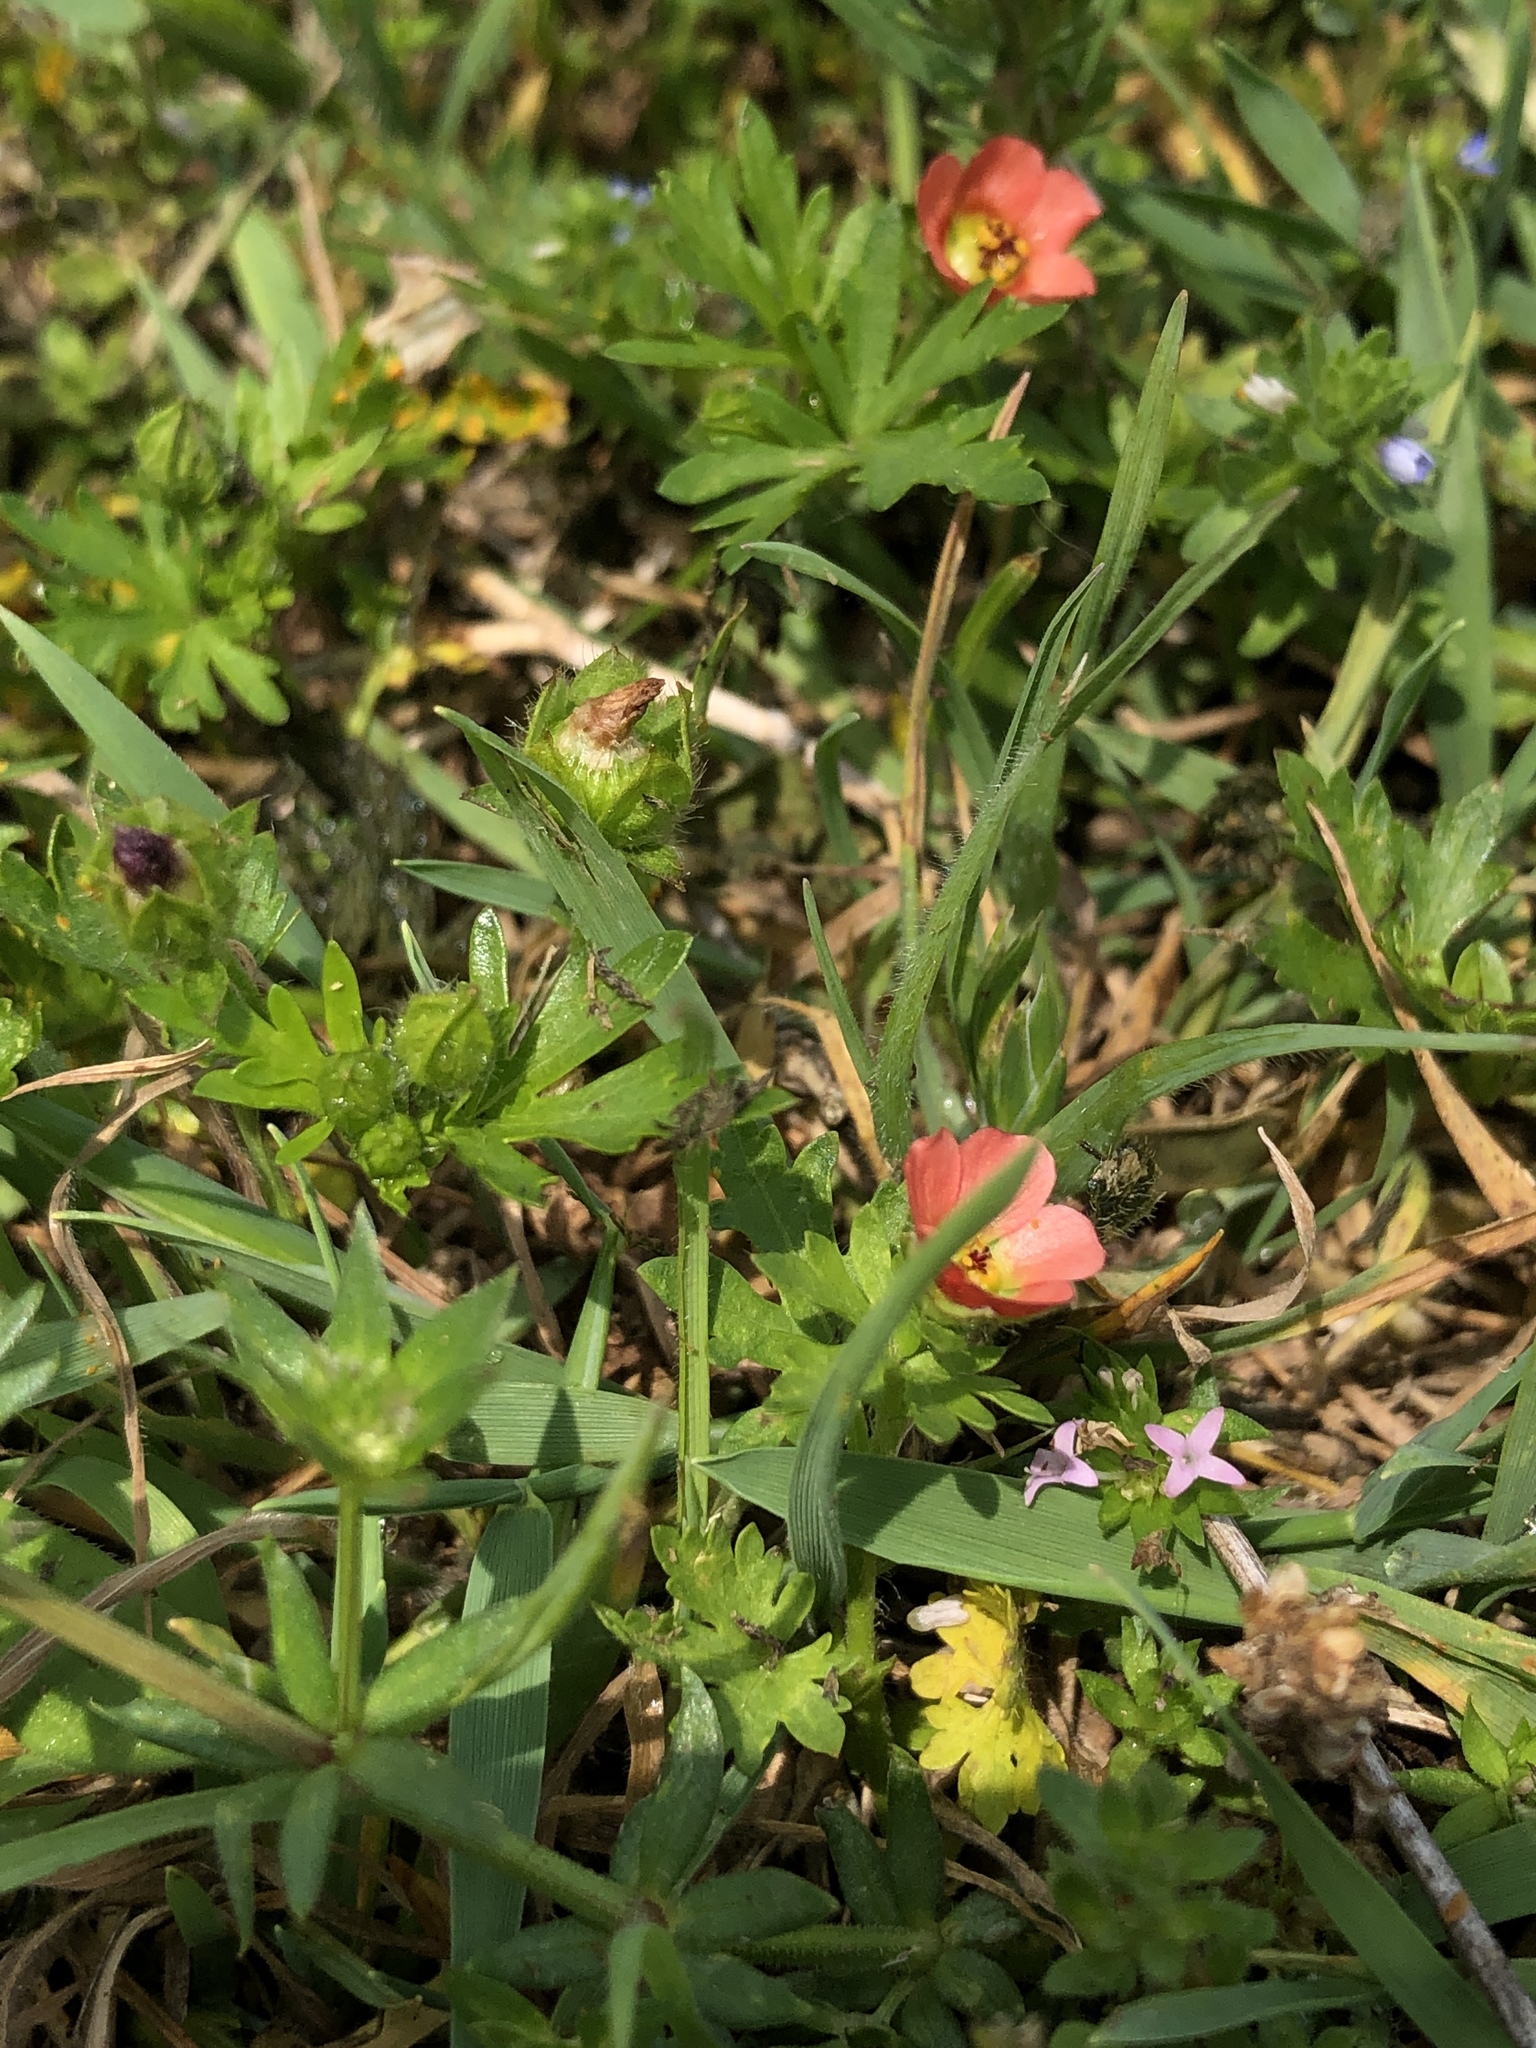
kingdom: Plantae
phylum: Tracheophyta
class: Magnoliopsida
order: Malvales
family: Malvaceae
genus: Modiola
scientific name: Modiola caroliniana
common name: Carolina bristlemallow
